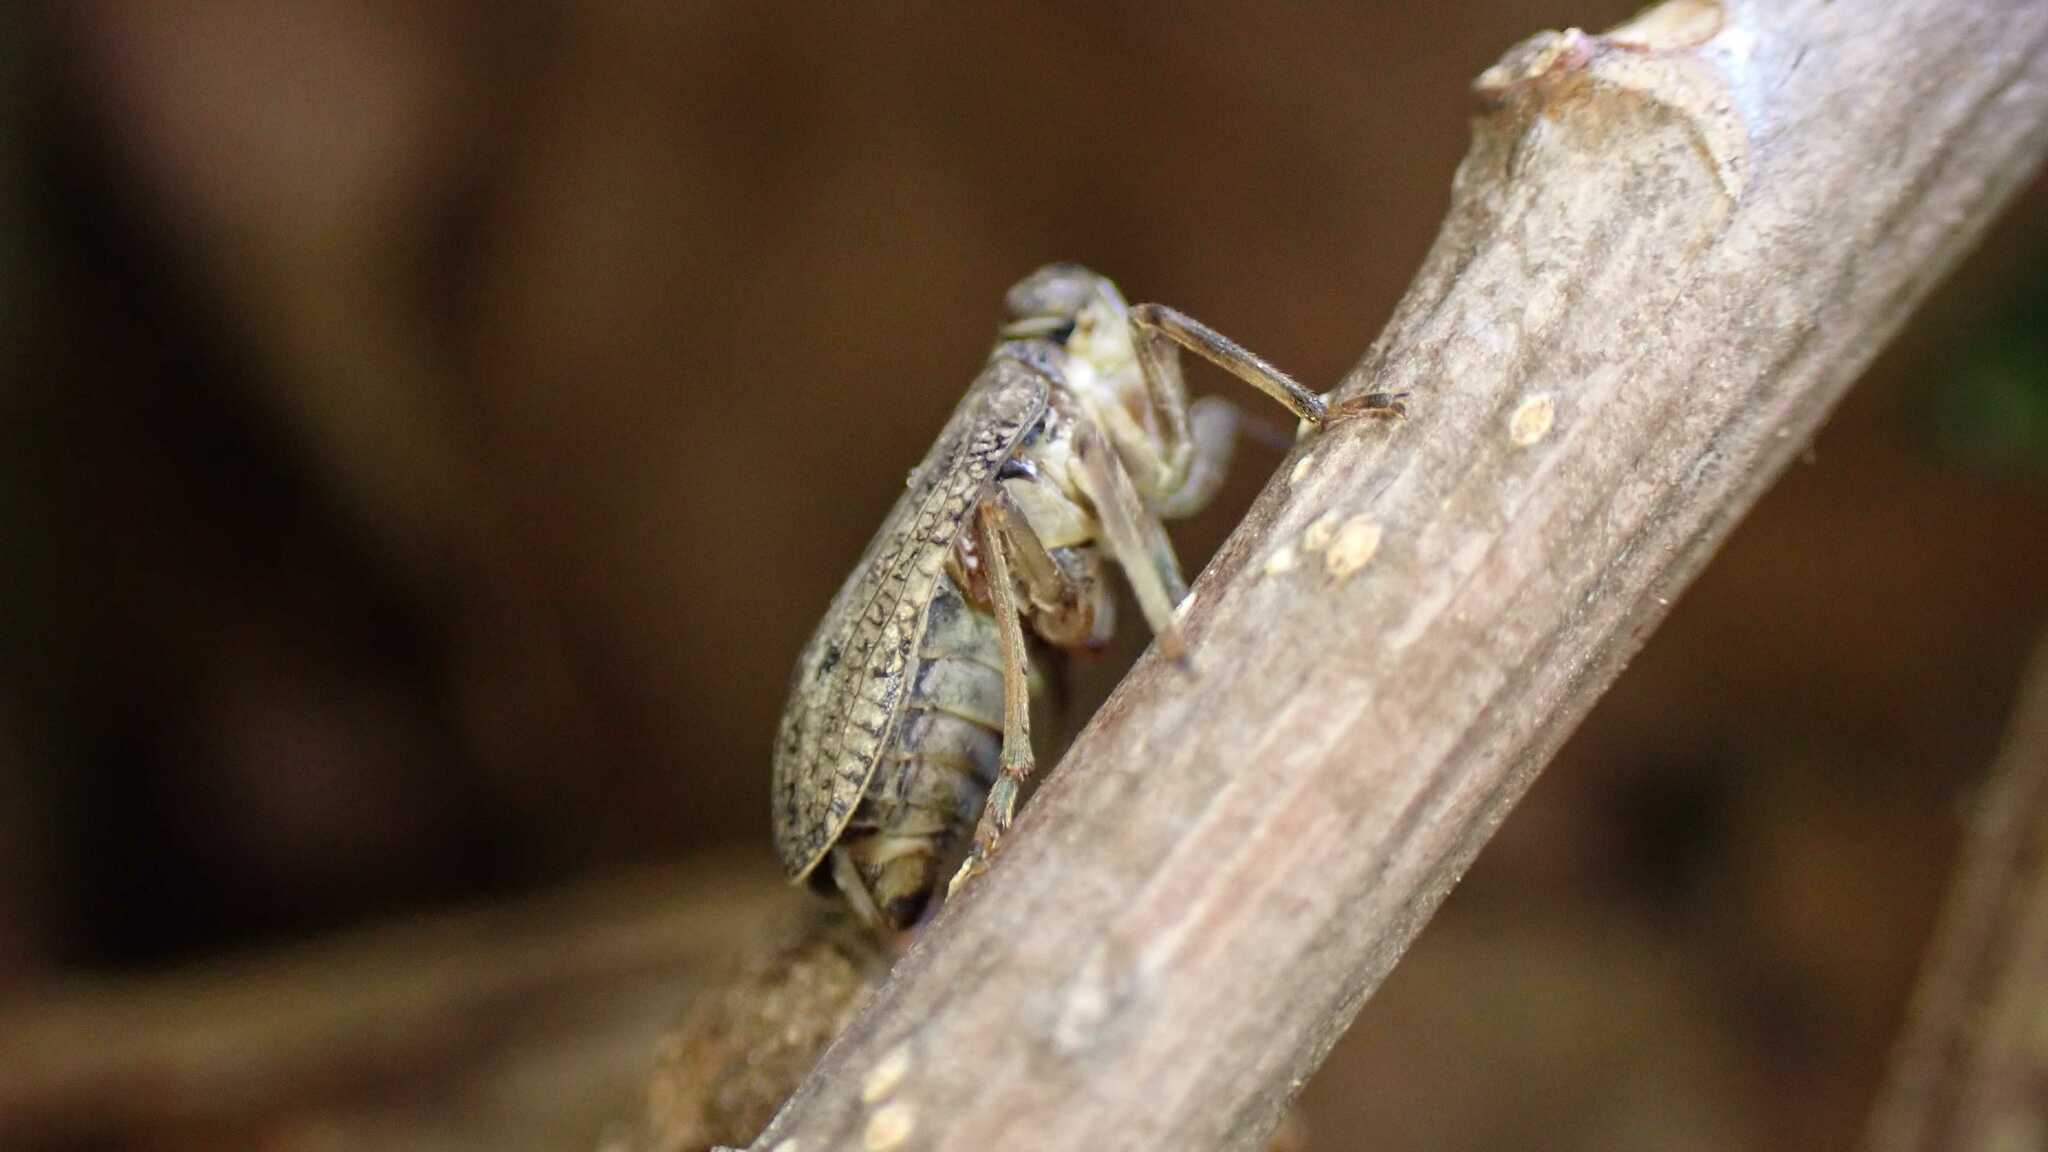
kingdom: Animalia
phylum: Arthropoda
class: Insecta
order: Hemiptera
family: Issidae
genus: Issus
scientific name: Issus coleoptratus
